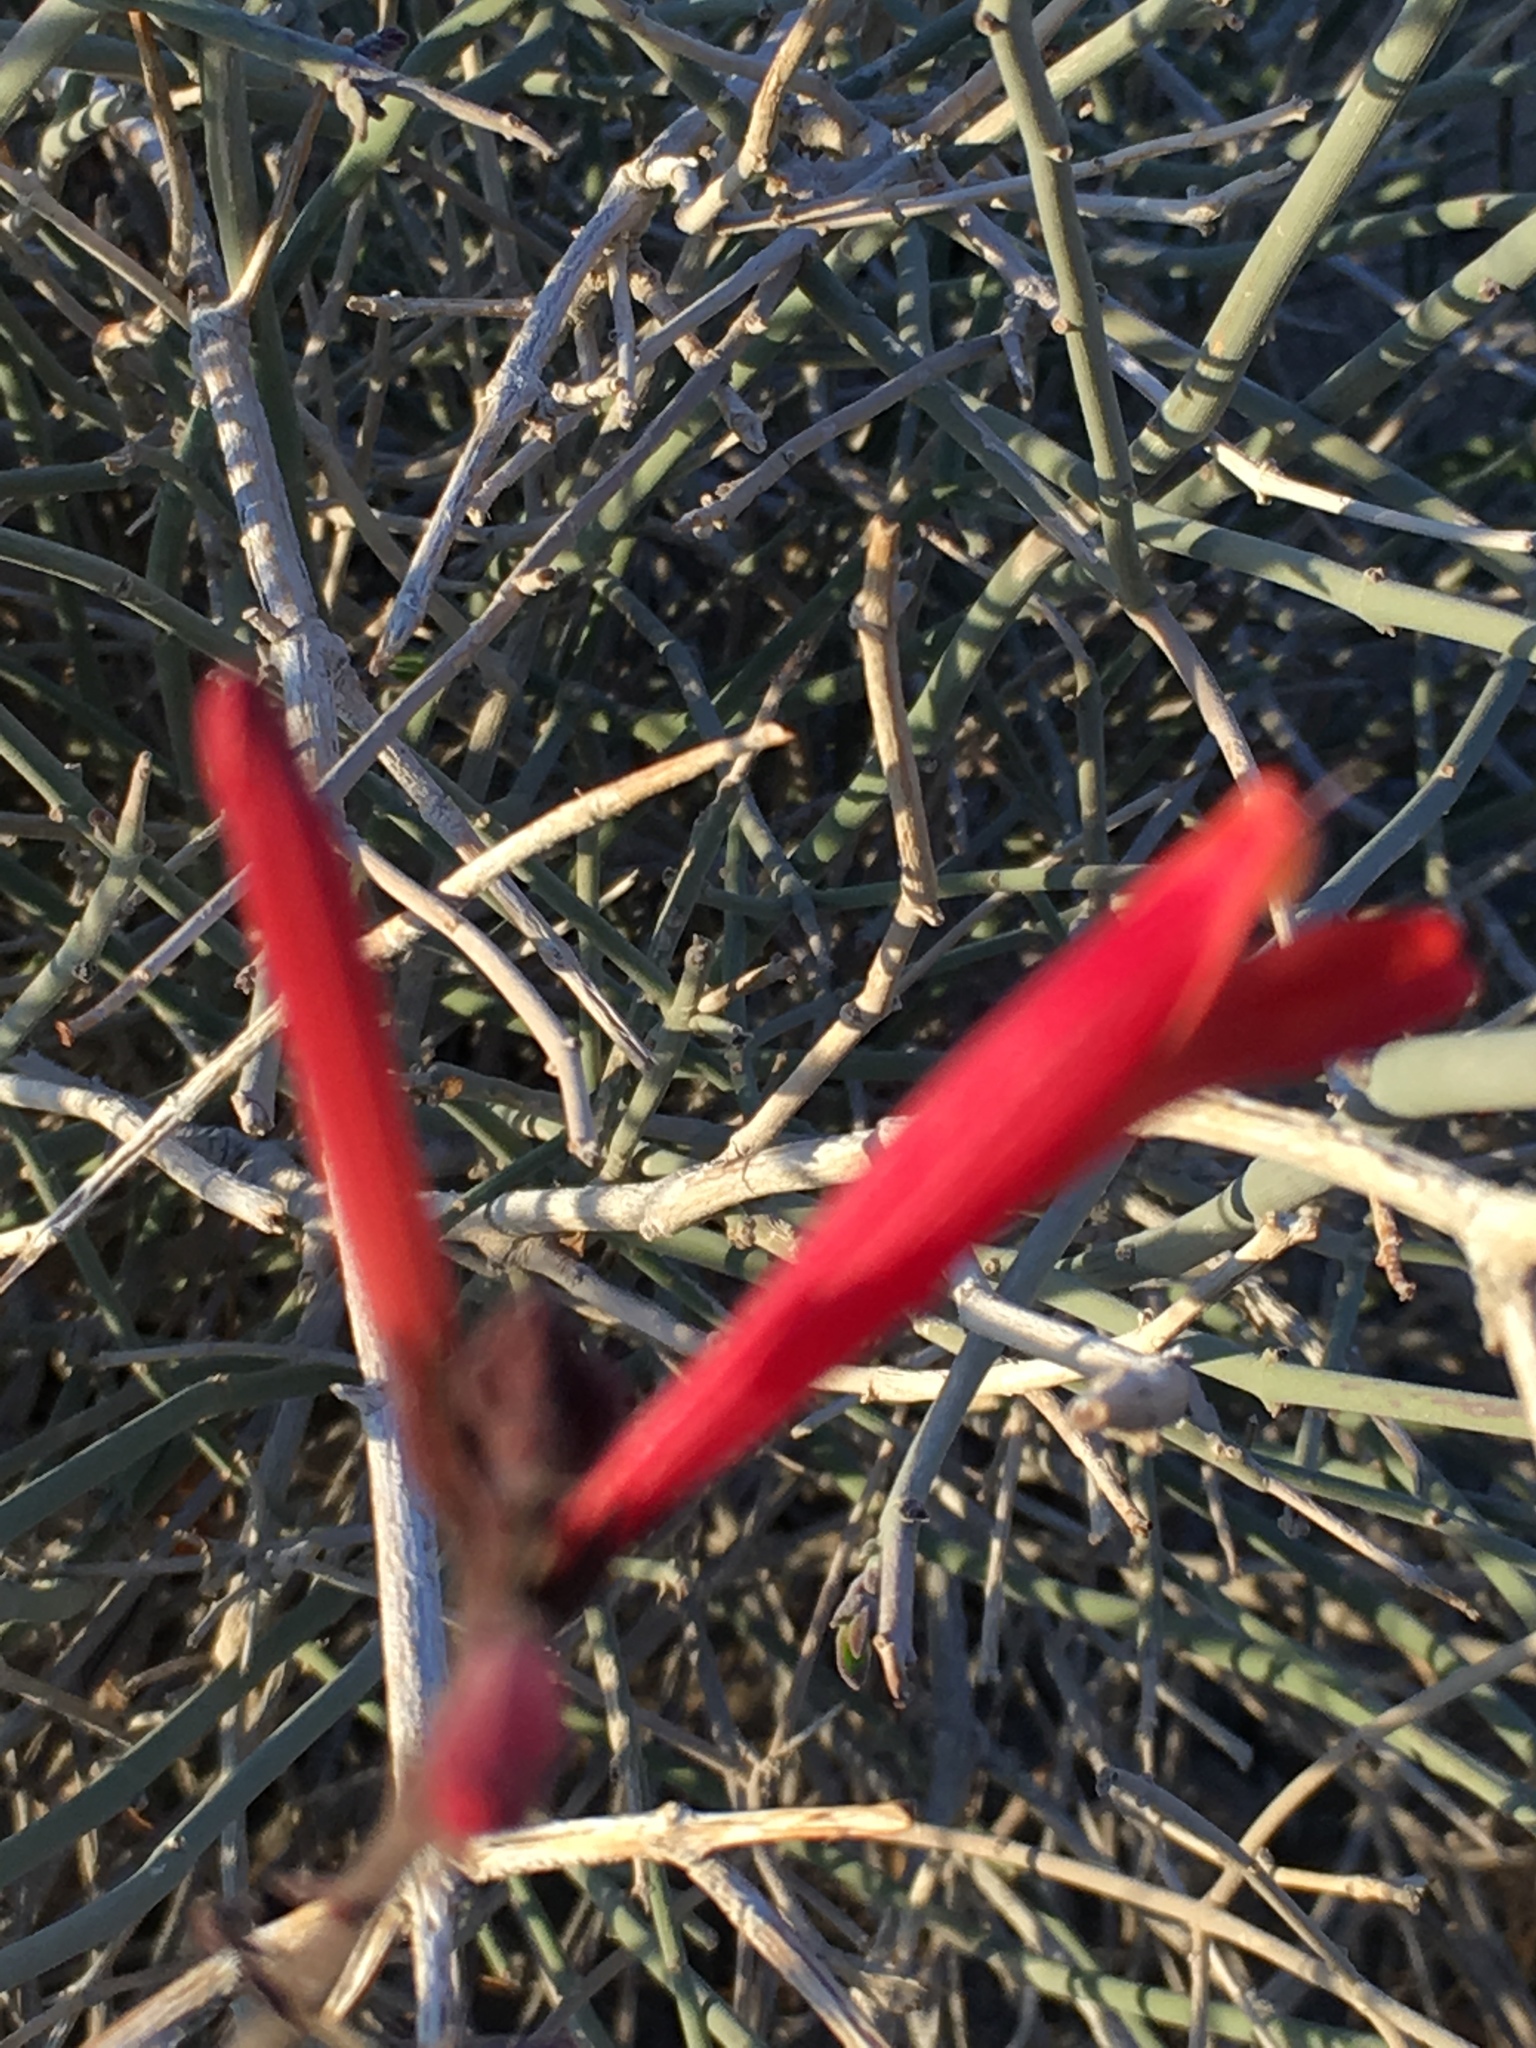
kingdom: Plantae
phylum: Tracheophyta
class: Magnoliopsida
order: Lamiales
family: Acanthaceae
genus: Justicia
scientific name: Justicia californica
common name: Chuparosa-honeysuckle
